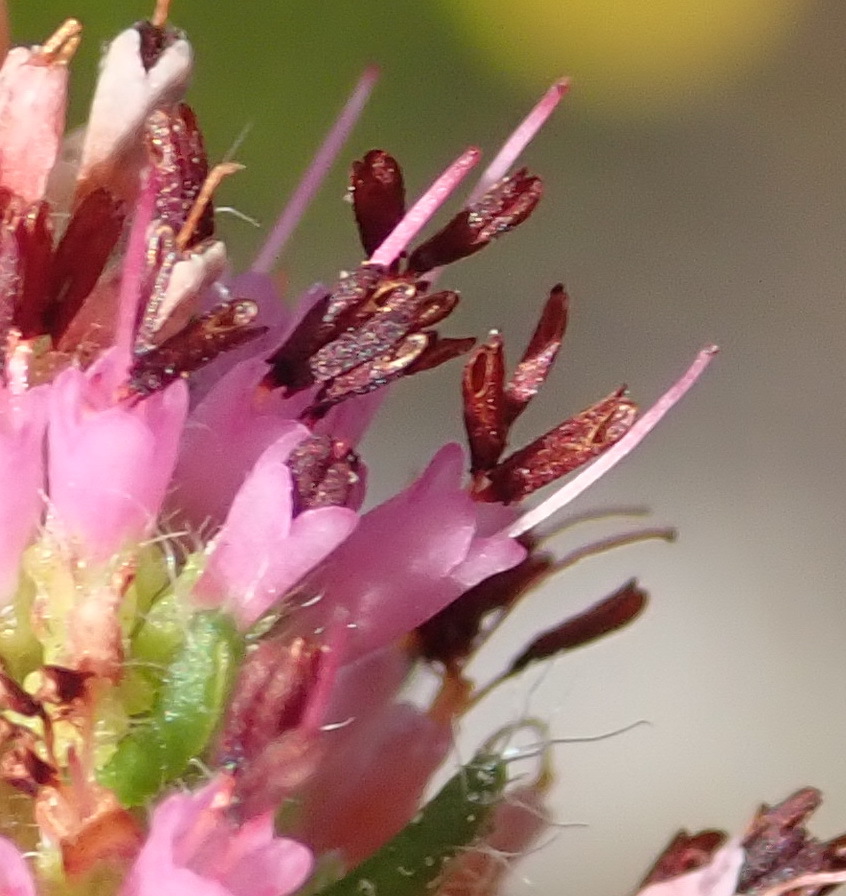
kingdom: Plantae
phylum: Tracheophyta
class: Magnoliopsida
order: Ericales
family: Ericaceae
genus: Erica
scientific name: Erica similis
